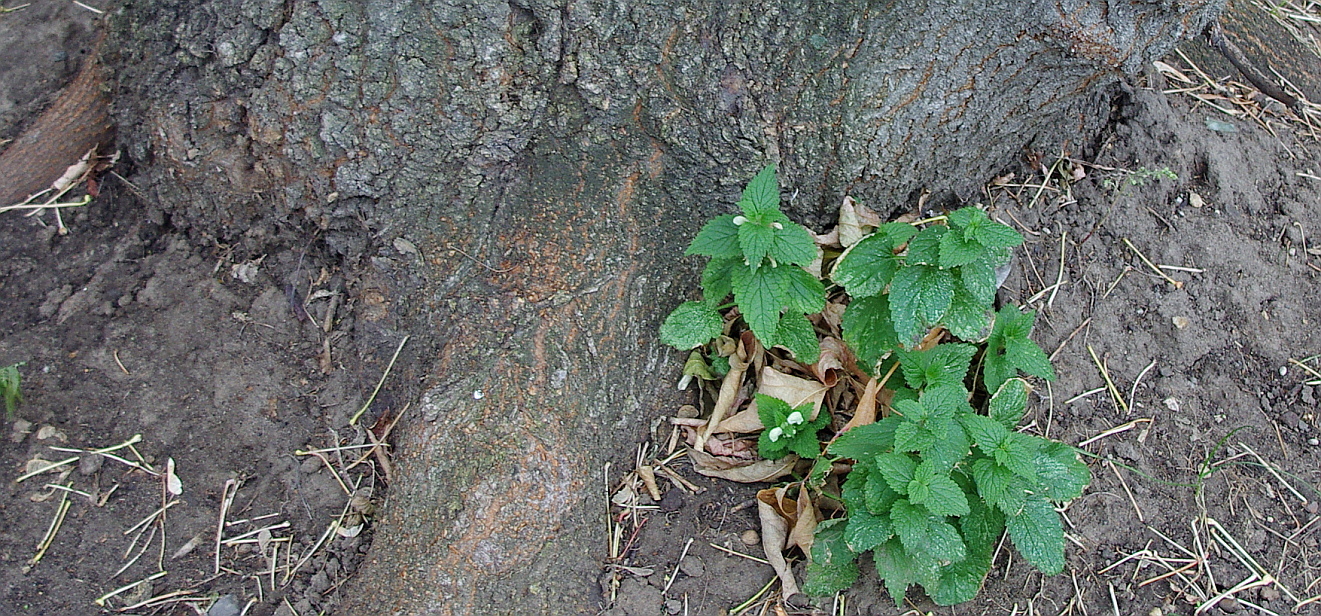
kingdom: Plantae
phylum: Tracheophyta
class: Magnoliopsida
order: Lamiales
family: Lamiaceae
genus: Lamium
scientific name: Lamium album
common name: White dead-nettle
